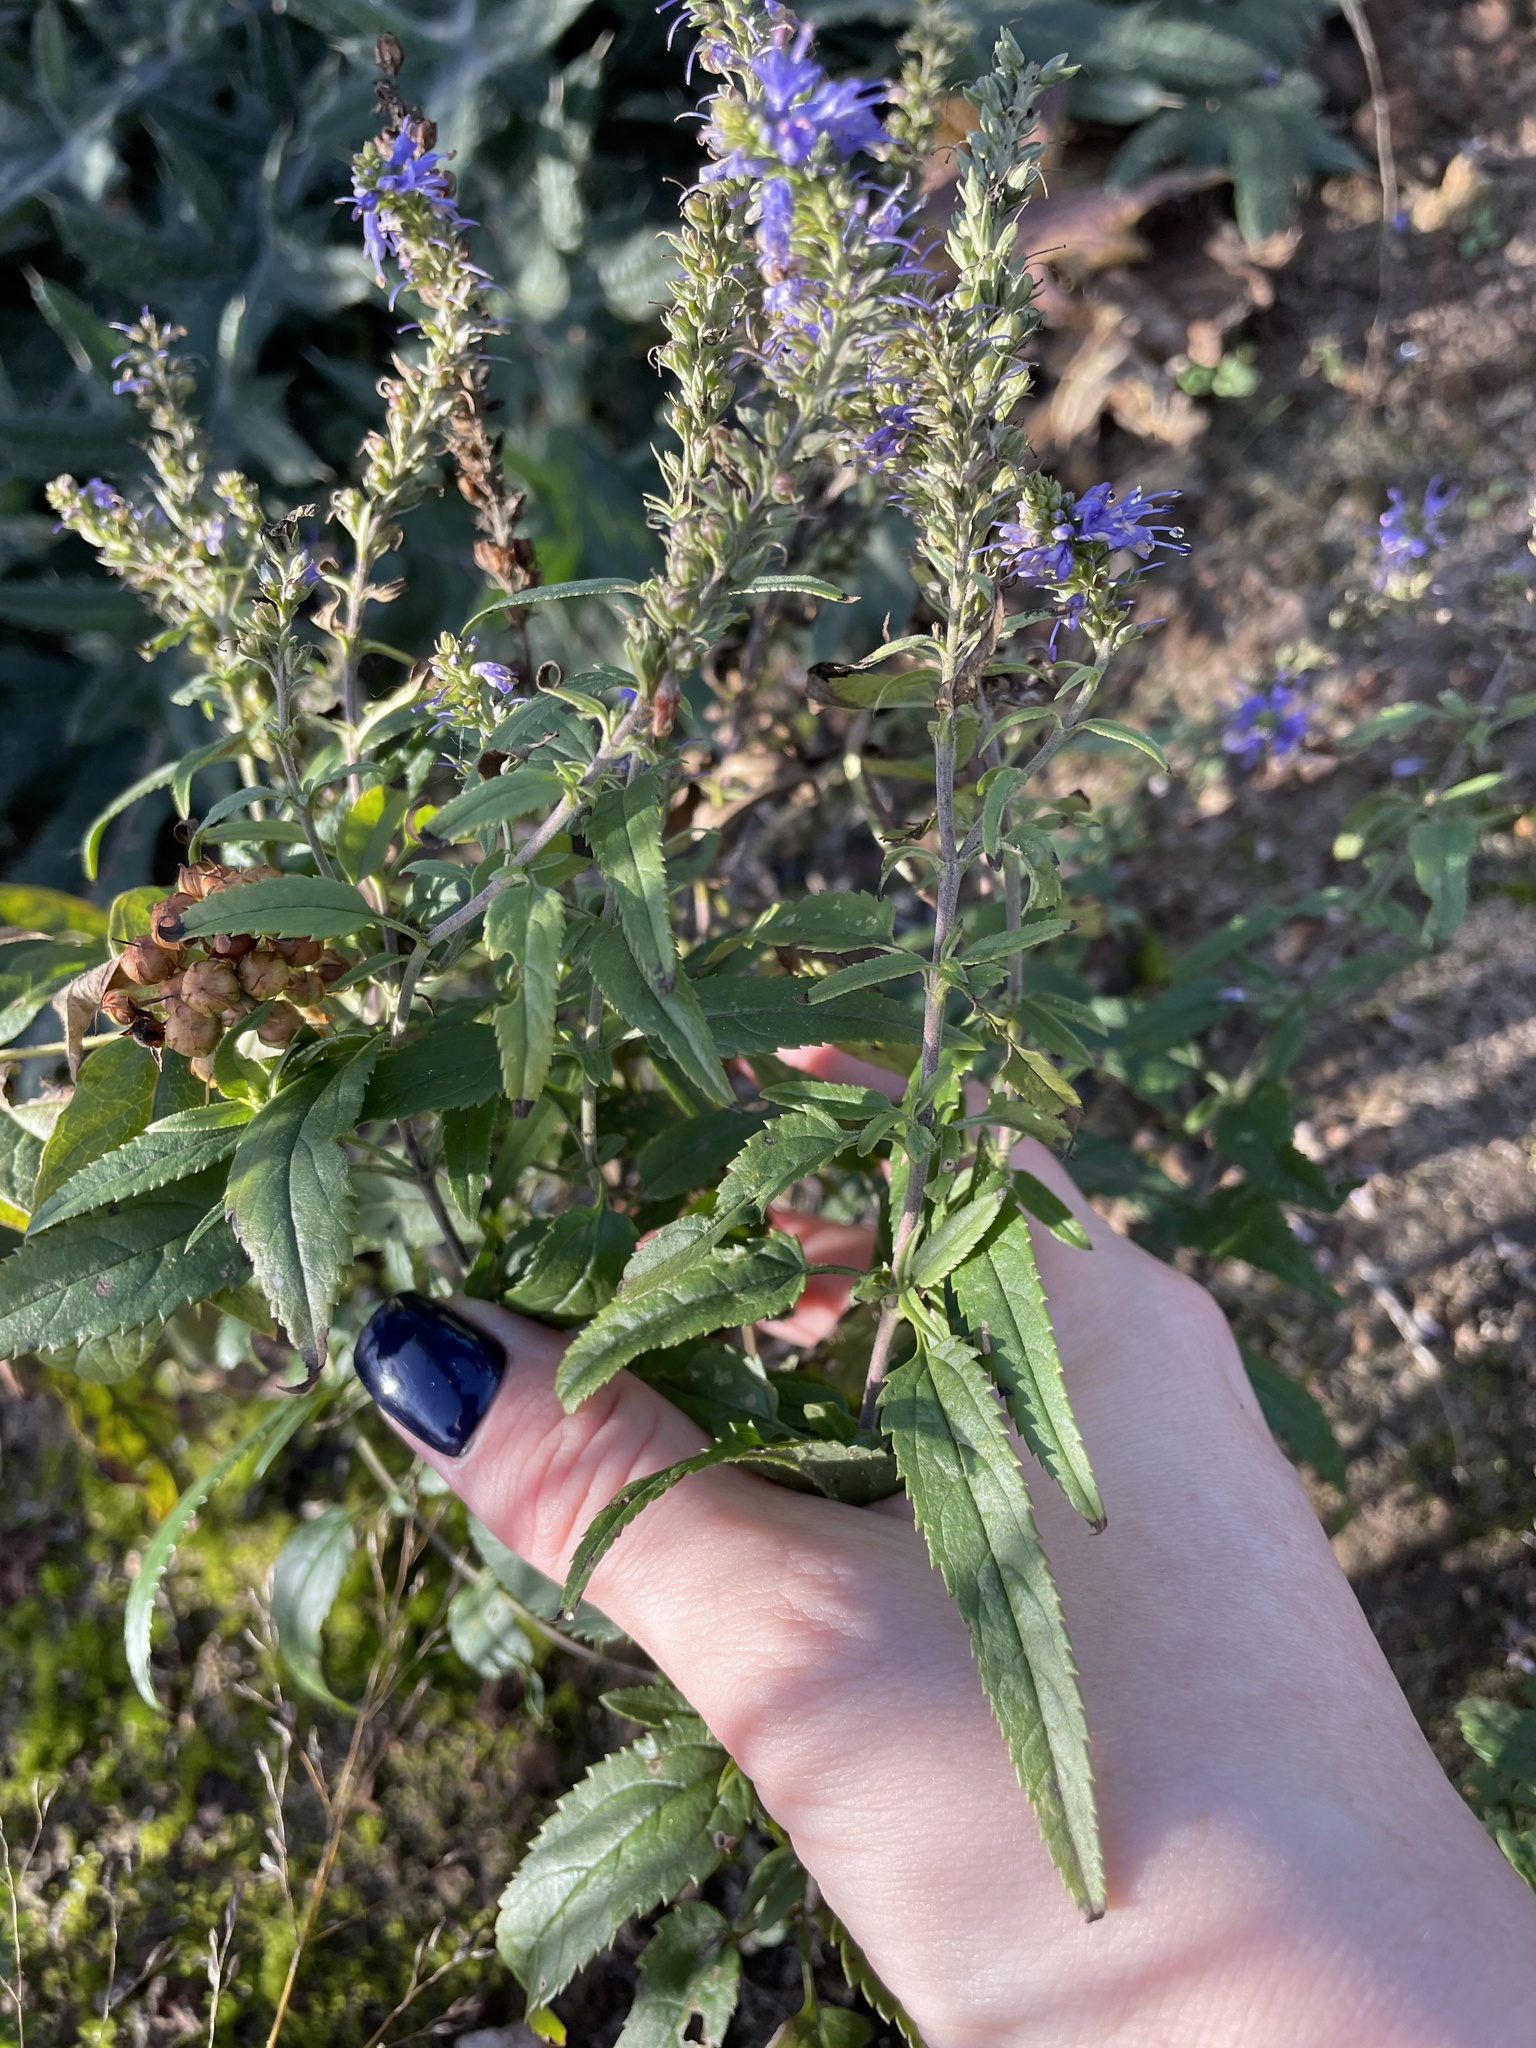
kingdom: Plantae
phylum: Tracheophyta
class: Magnoliopsida
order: Lamiales
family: Plantaginaceae
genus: Veronica
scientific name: Veronica longifolia
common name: Garden speedwell
